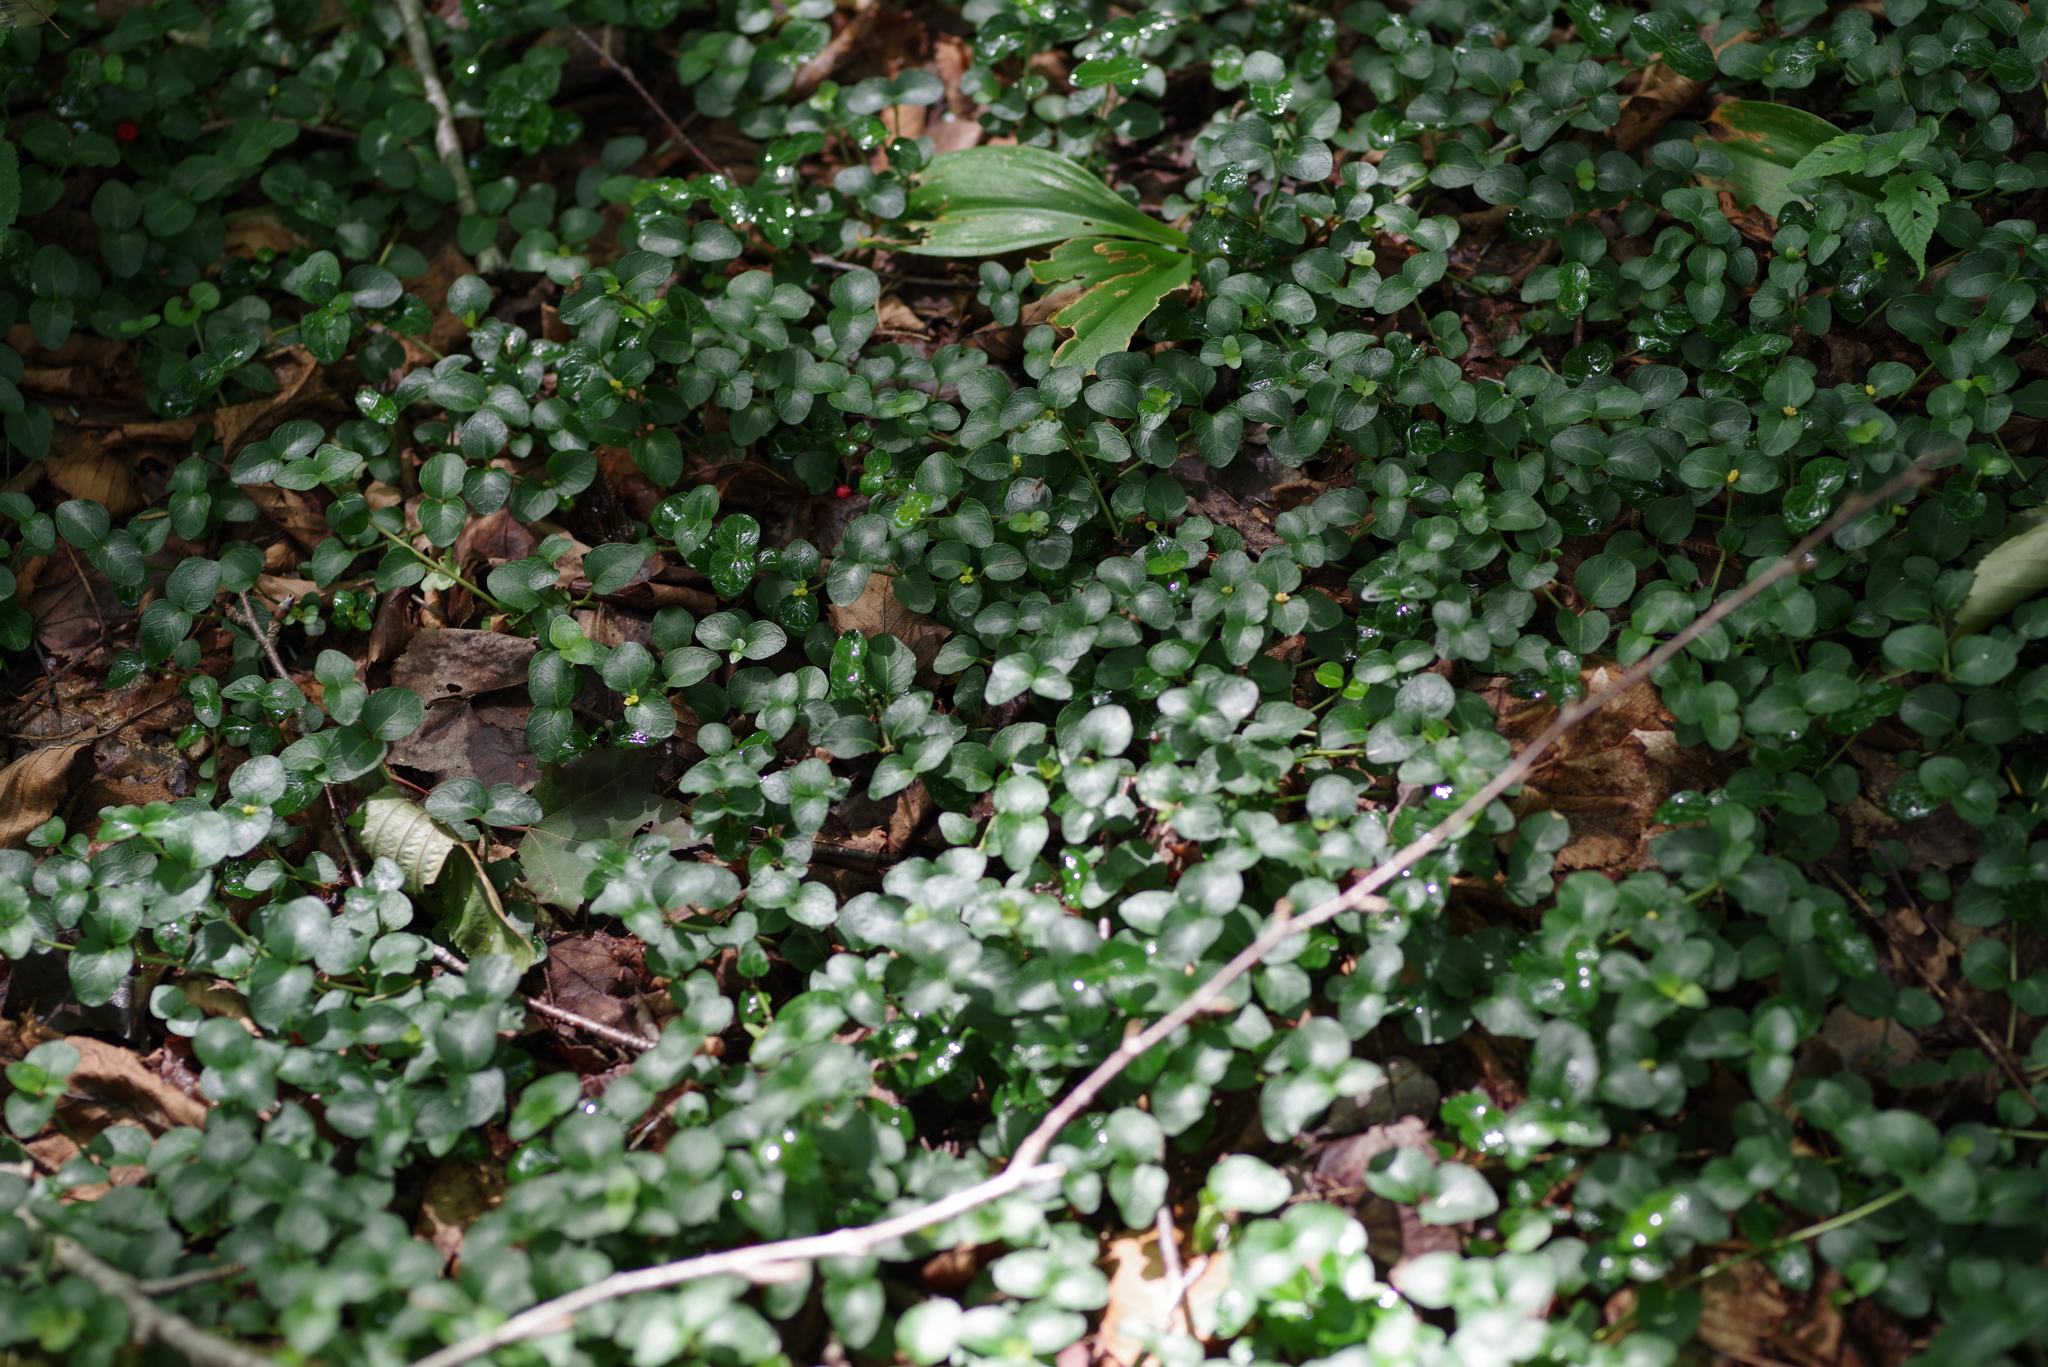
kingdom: Plantae
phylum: Tracheophyta
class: Magnoliopsida
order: Gentianales
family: Rubiaceae
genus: Mitchella
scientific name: Mitchella repens
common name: Partridge-berry
